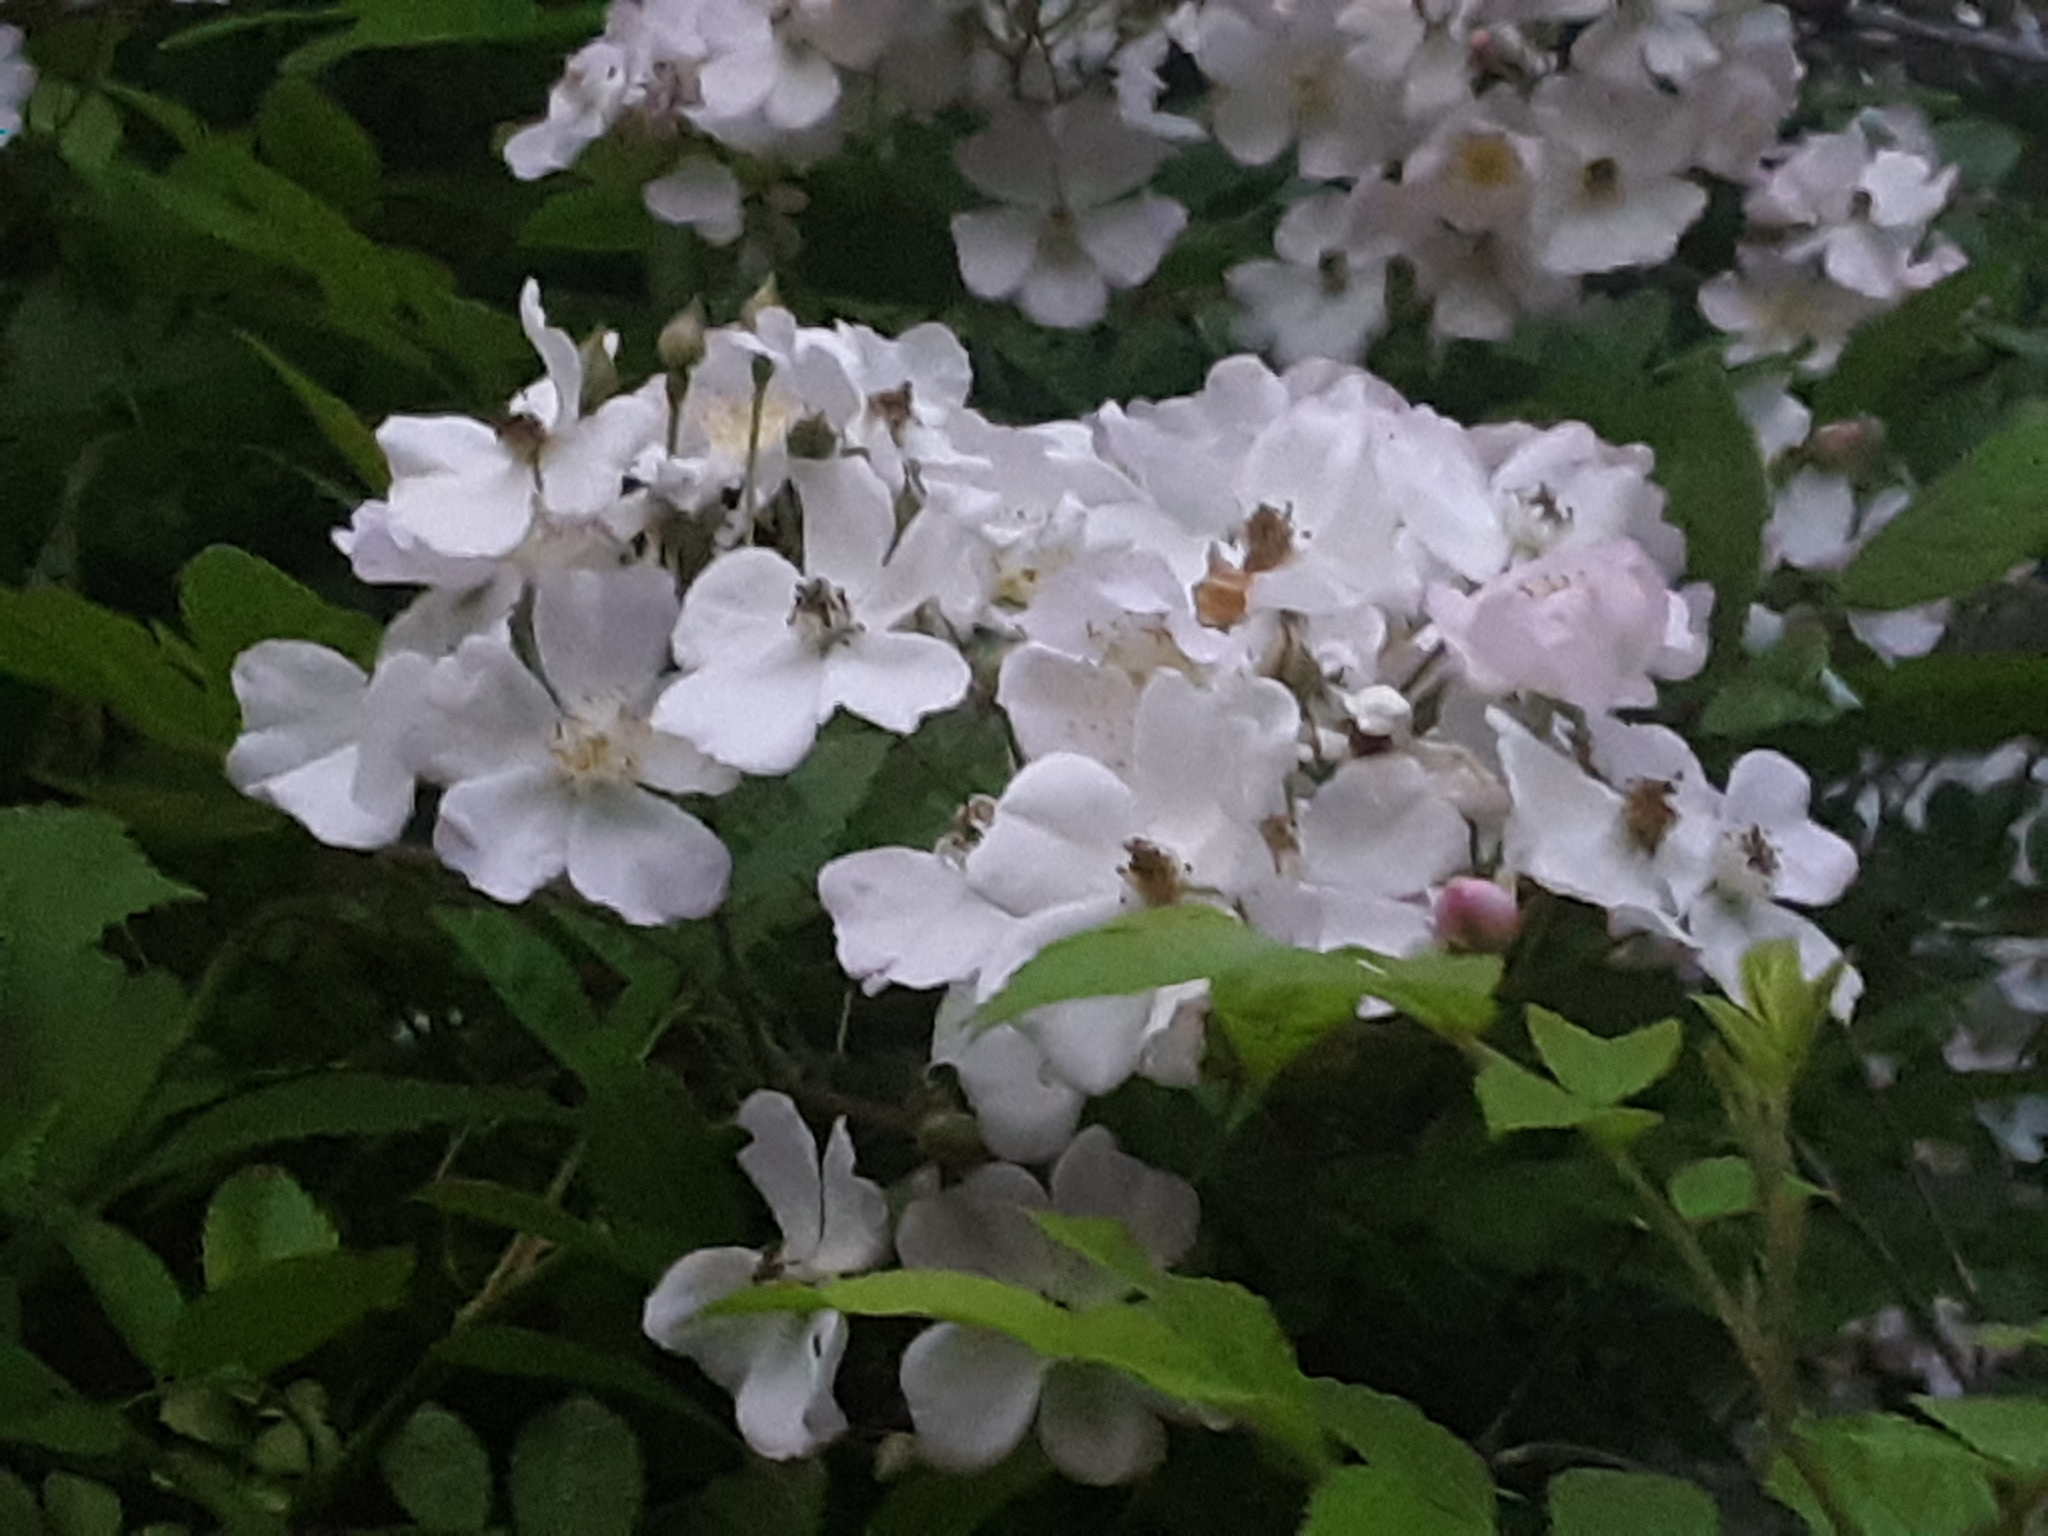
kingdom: Plantae
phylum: Tracheophyta
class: Magnoliopsida
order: Rosales
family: Rosaceae
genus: Rosa
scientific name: Rosa multiflora
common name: Multiflora rose
